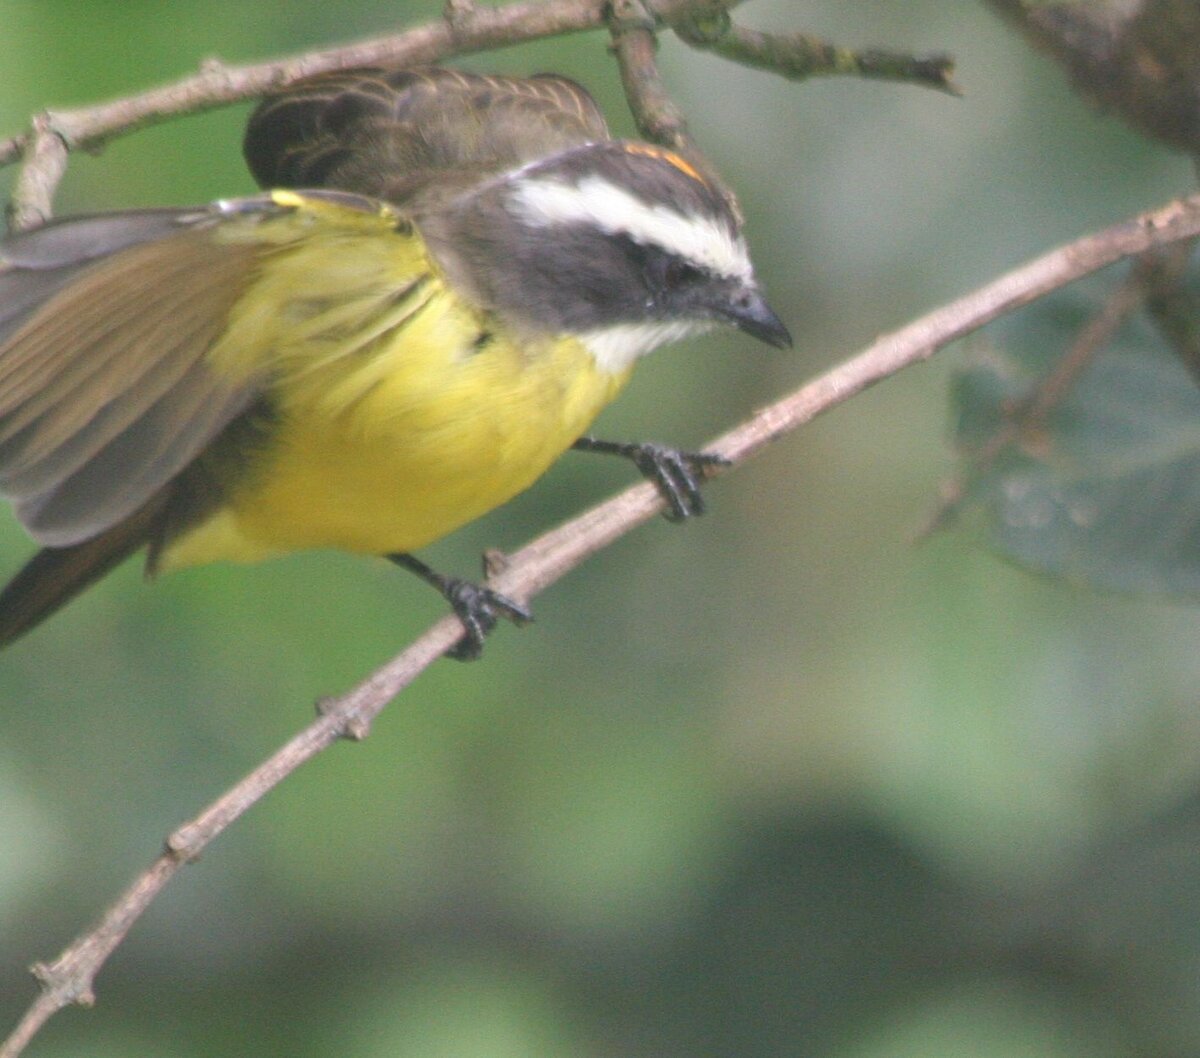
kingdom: Animalia
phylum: Chordata
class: Aves
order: Passeriformes
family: Tyrannidae
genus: Myiozetetes
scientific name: Myiozetetes cayanensis
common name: Rusty-margined flycatcher
